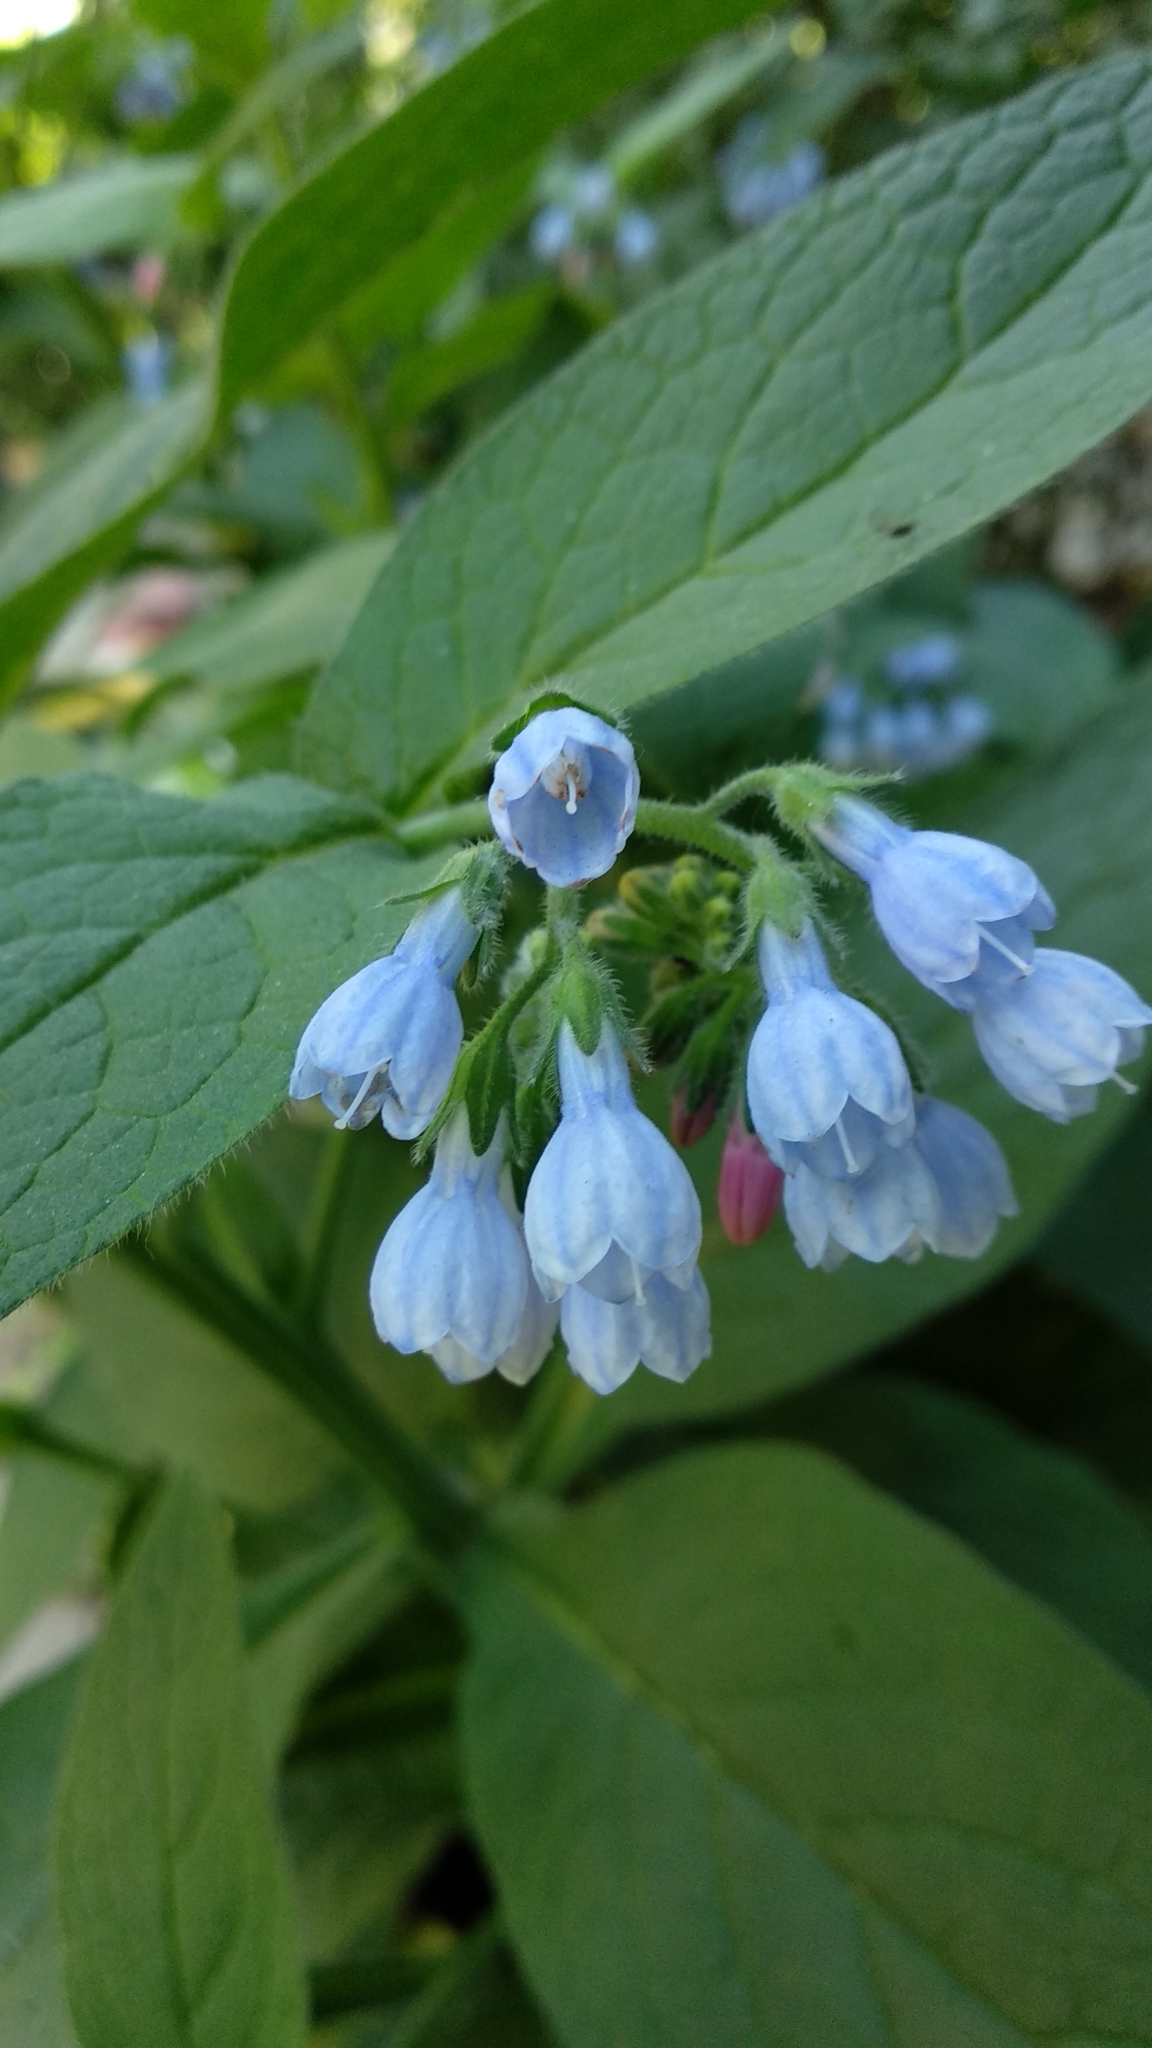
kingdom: Plantae
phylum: Tracheophyta
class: Magnoliopsida
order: Boraginales
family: Boraginaceae
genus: Symphytum
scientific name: Symphytum caucasicum
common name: Caucasian comfrey
